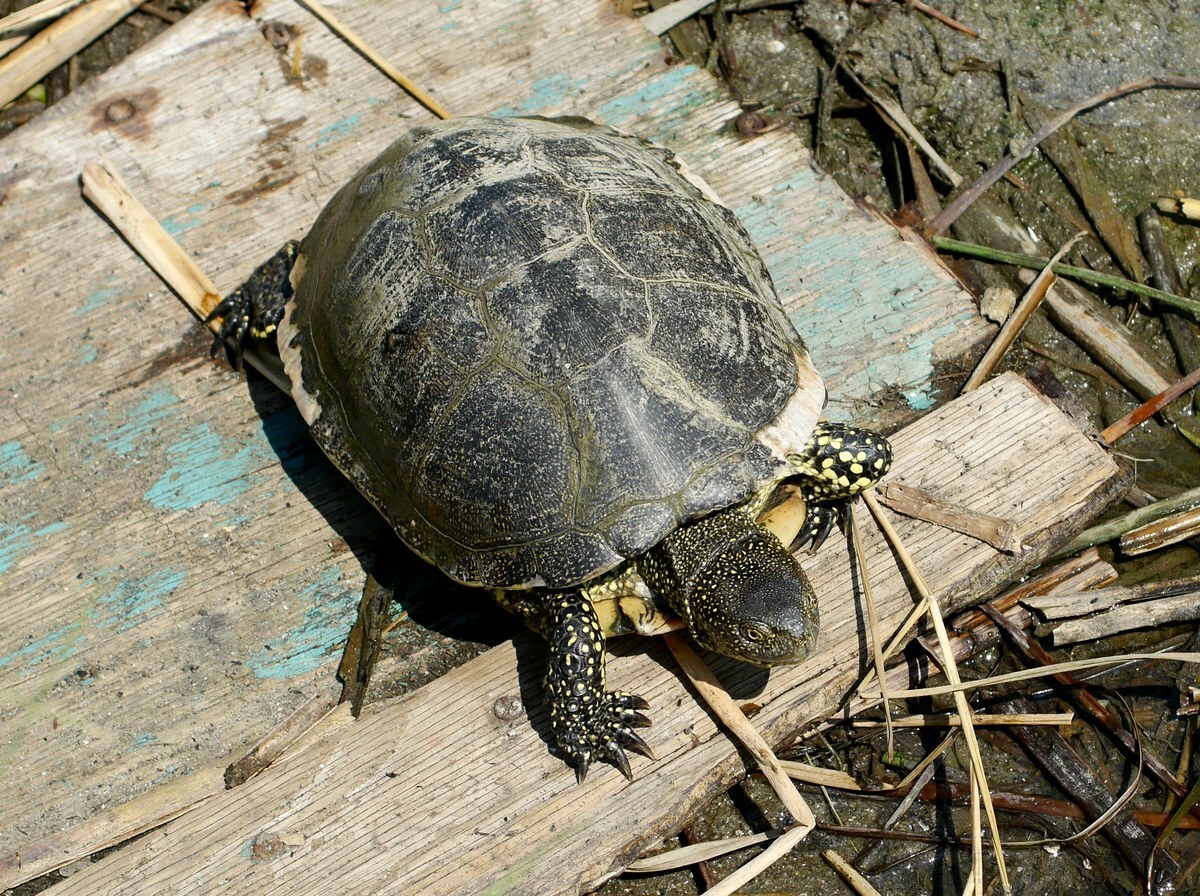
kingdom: Animalia
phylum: Chordata
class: Testudines
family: Emydidae
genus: Emys
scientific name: Emys orbicularis
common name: European pond turtle
